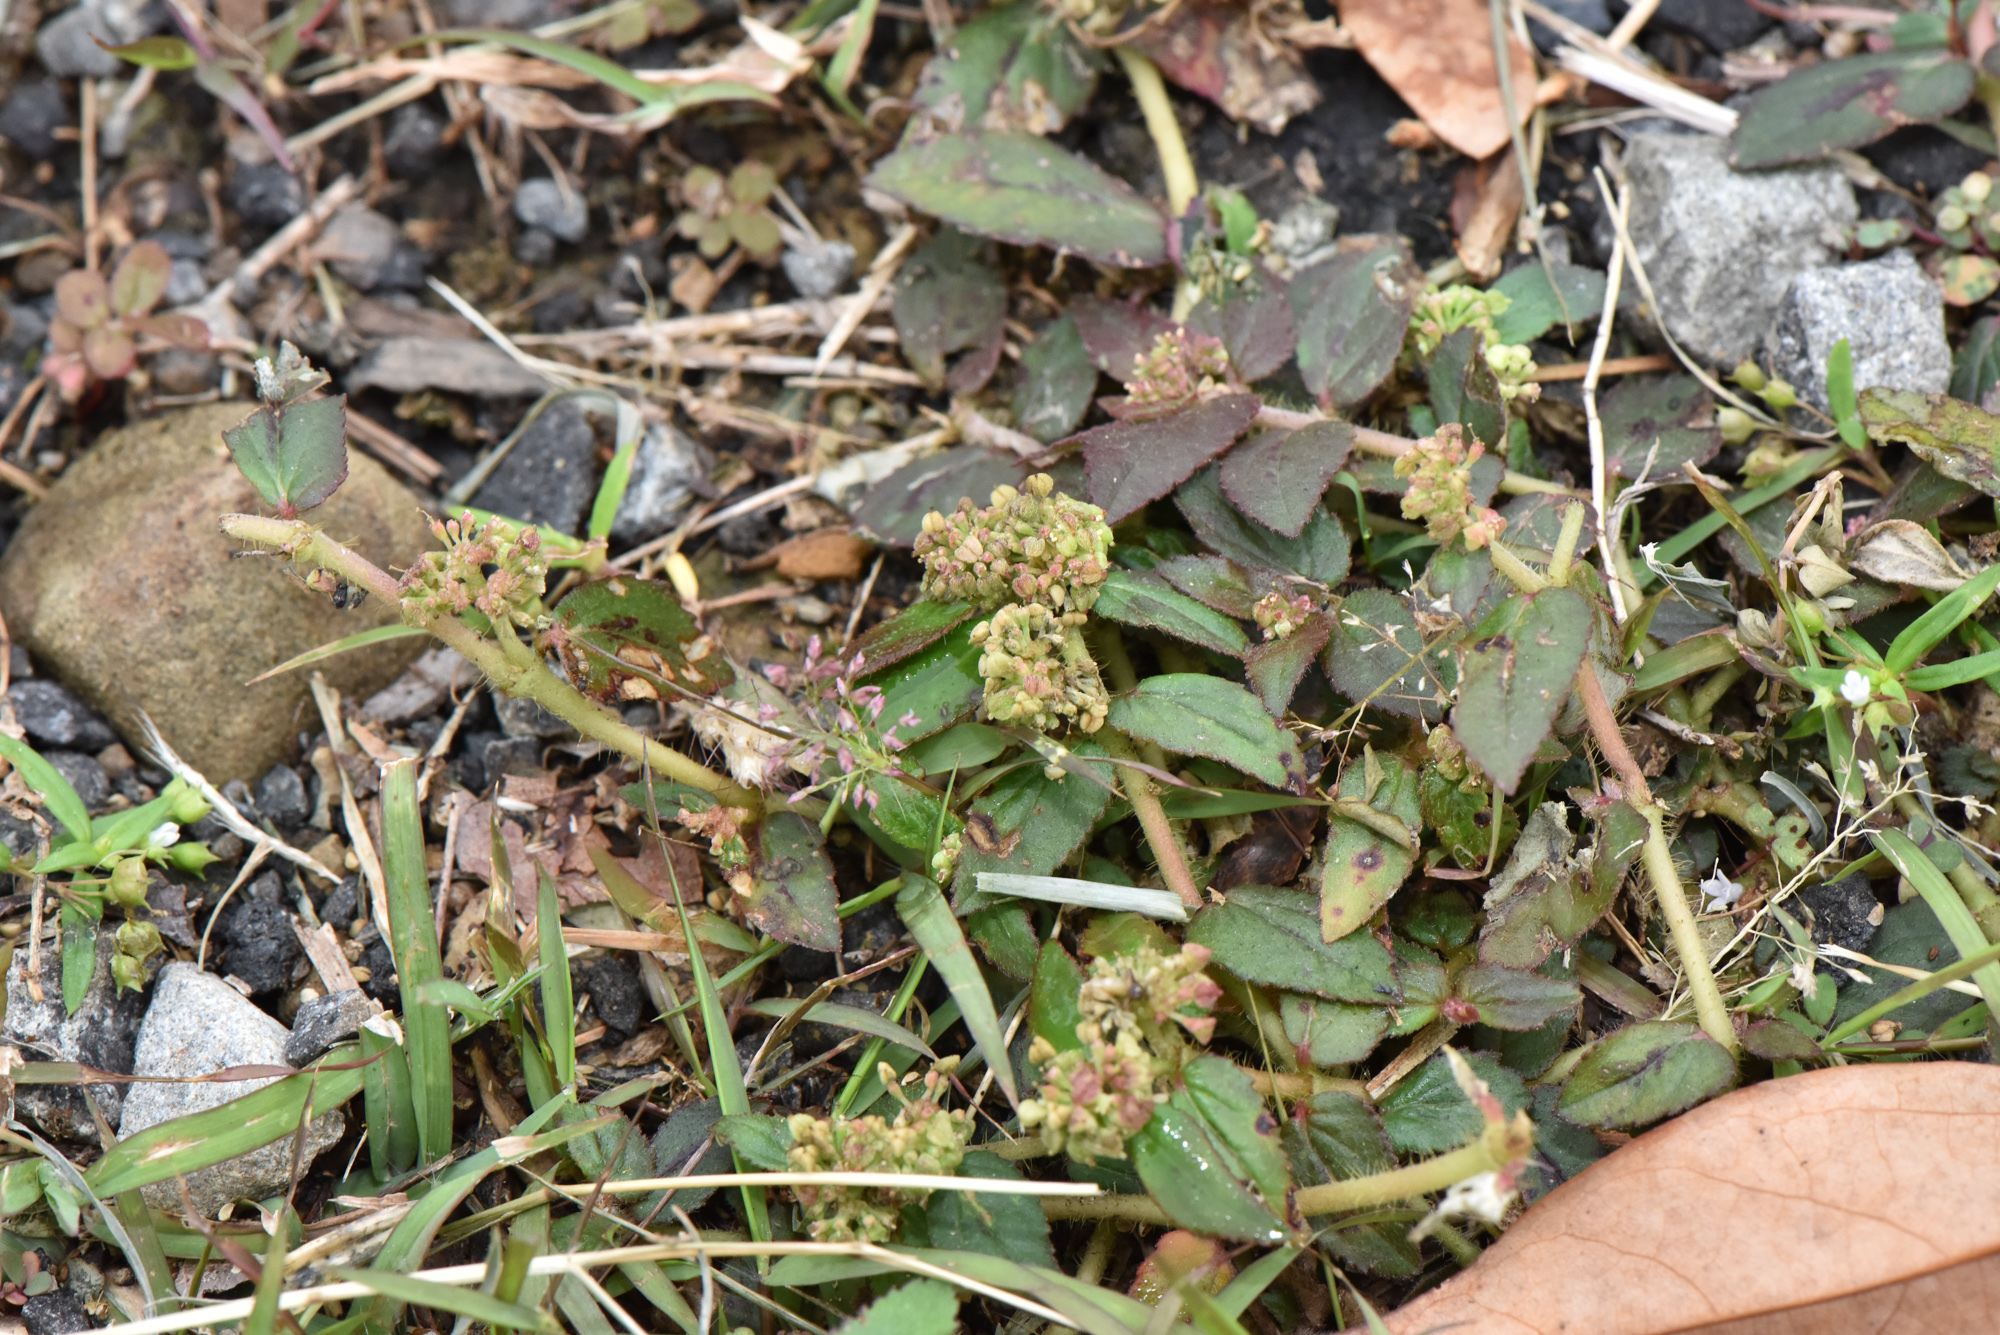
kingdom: Plantae
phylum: Tracheophyta
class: Magnoliopsida
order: Malpighiales
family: Euphorbiaceae
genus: Euphorbia
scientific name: Euphorbia hirta
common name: Pillpod sandmat
